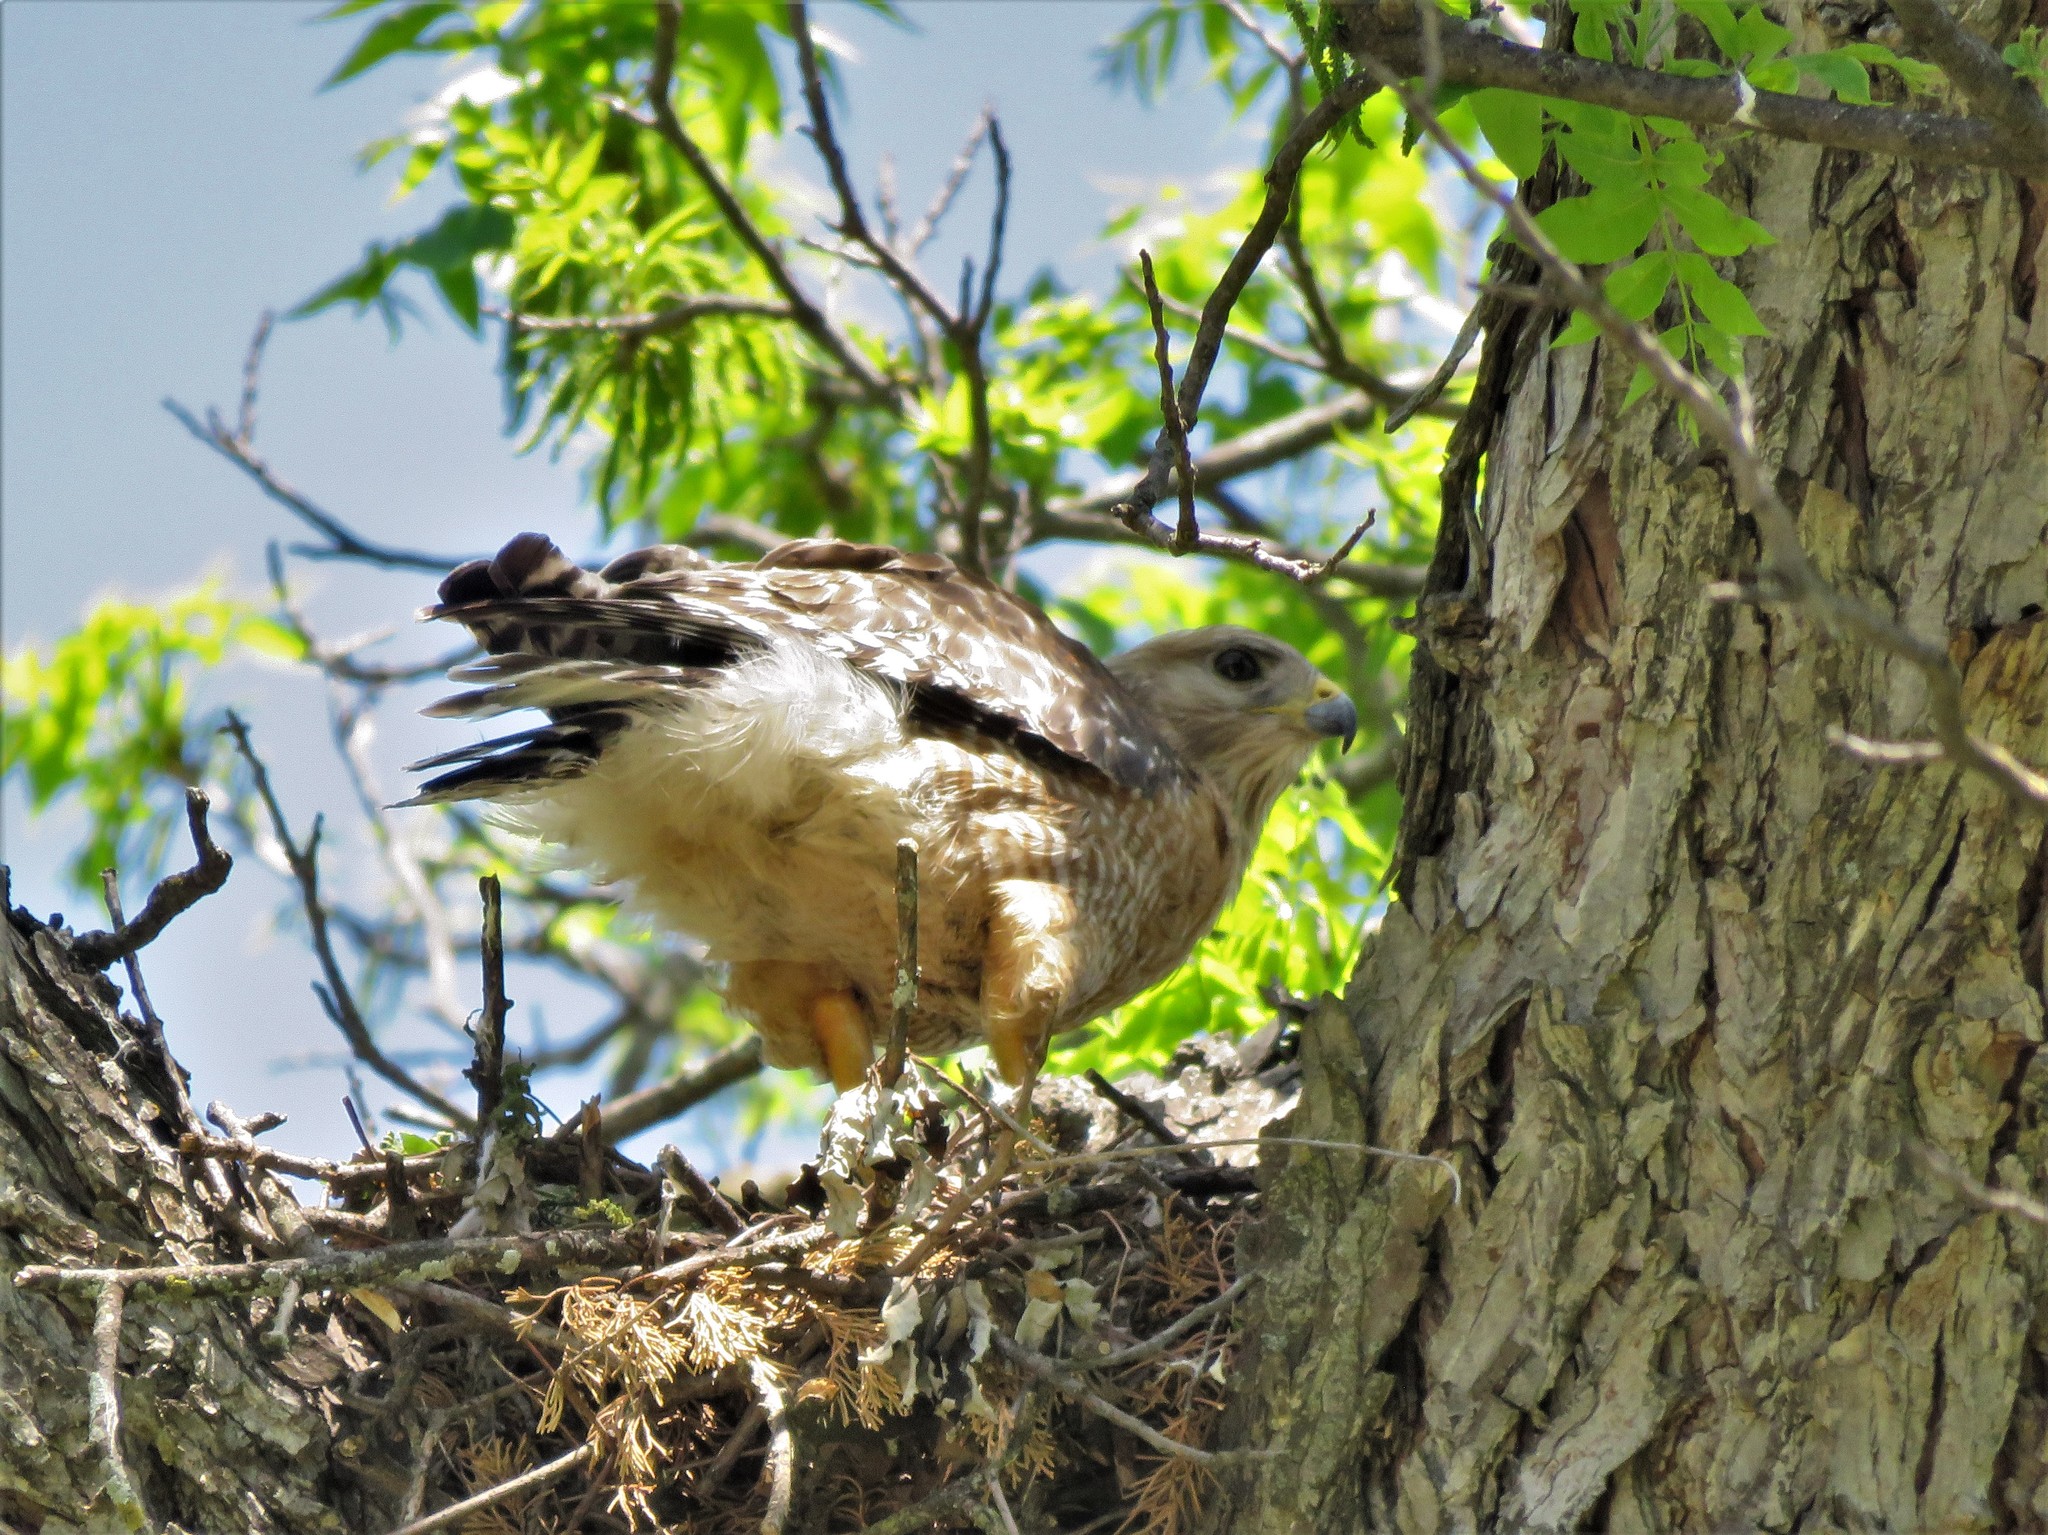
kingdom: Animalia
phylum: Chordata
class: Aves
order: Accipitriformes
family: Accipitridae
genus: Buteo
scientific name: Buteo lineatus
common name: Red-shouldered hawk
